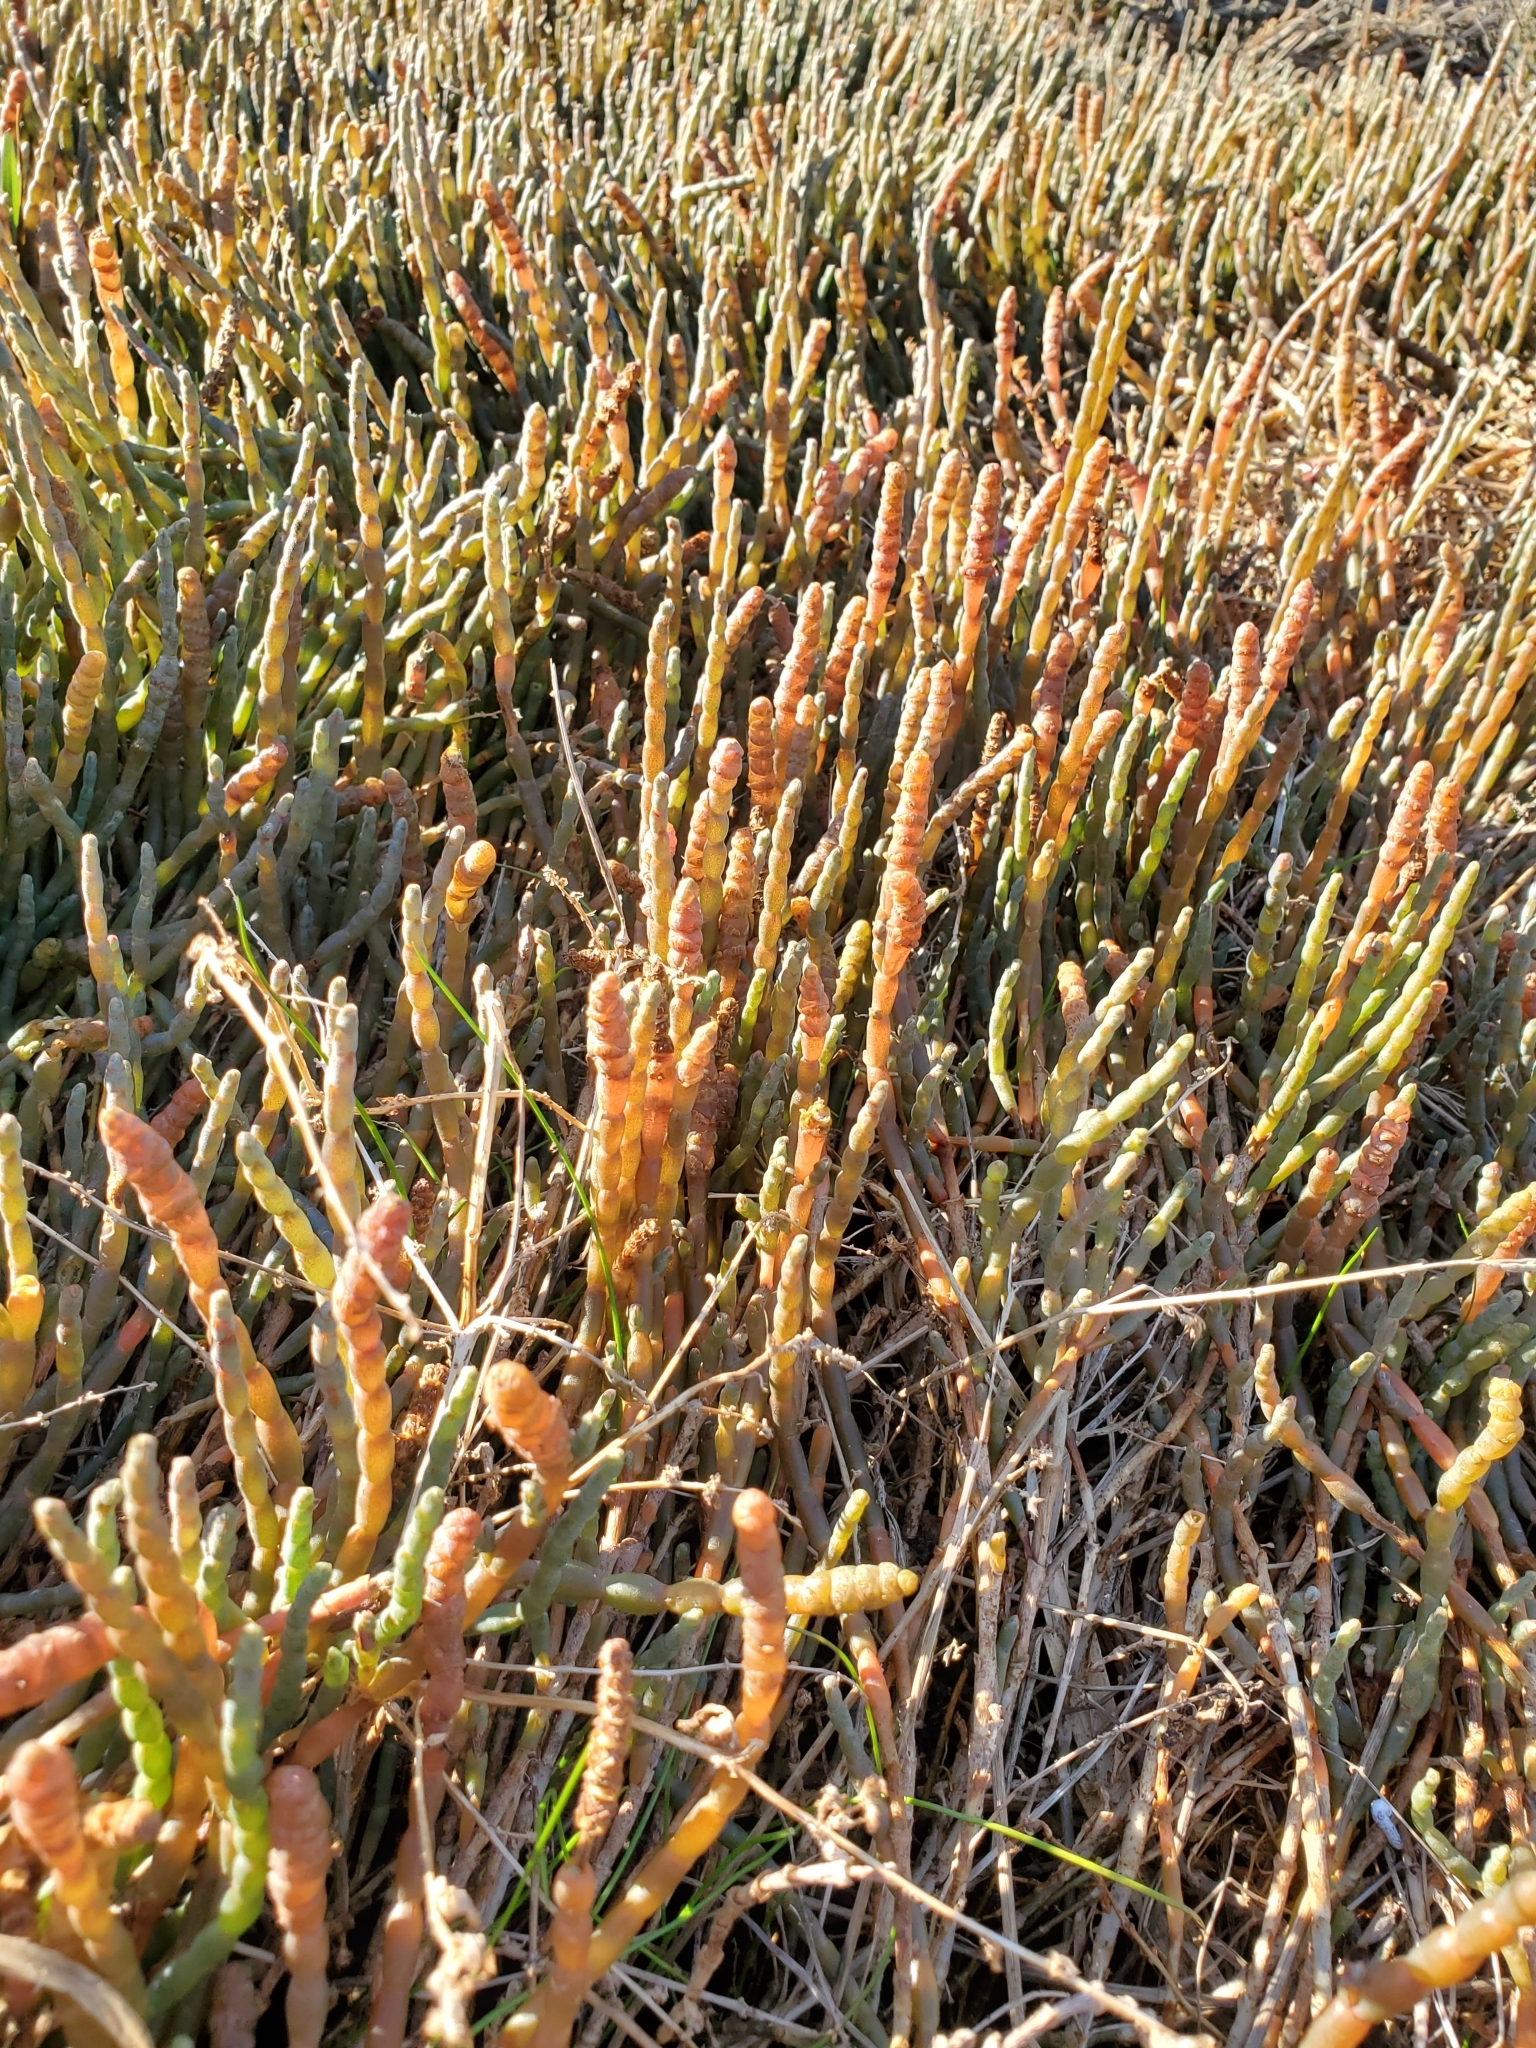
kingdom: Plantae
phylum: Tracheophyta
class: Magnoliopsida
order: Caryophyllales
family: Amaranthaceae
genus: Salicornia
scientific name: Salicornia quinqueflora
